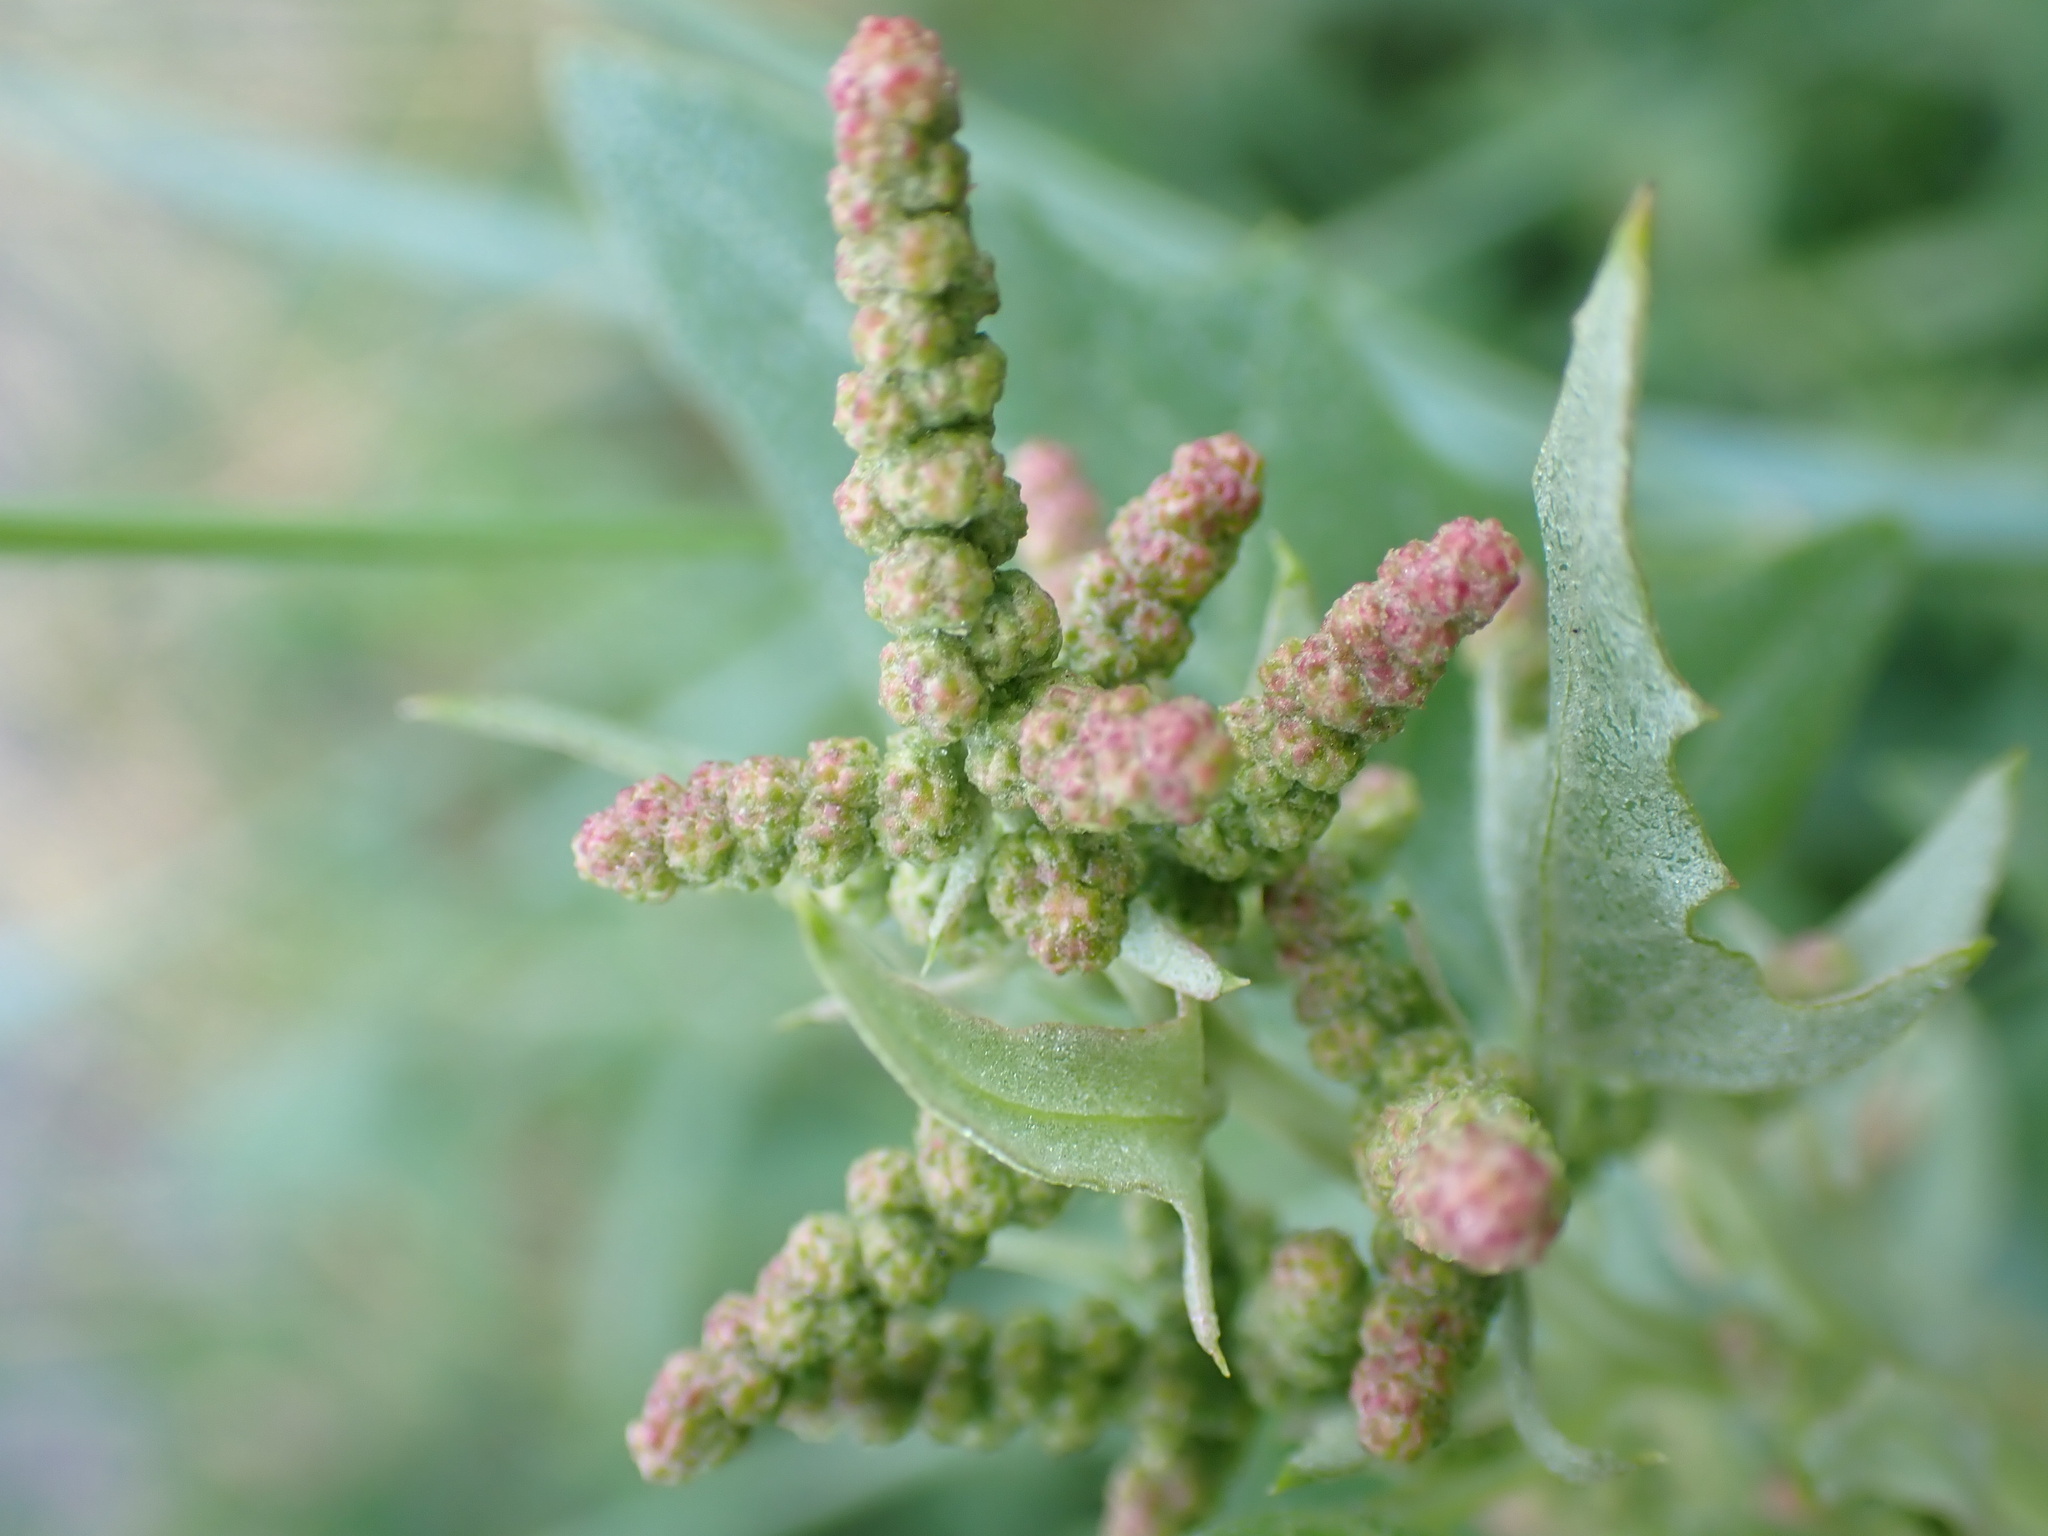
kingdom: Plantae
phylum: Tracheophyta
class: Magnoliopsida
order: Caryophyllales
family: Amaranthaceae
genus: Atriplex
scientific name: Atriplex prostrata
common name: Spear-leaved orache
